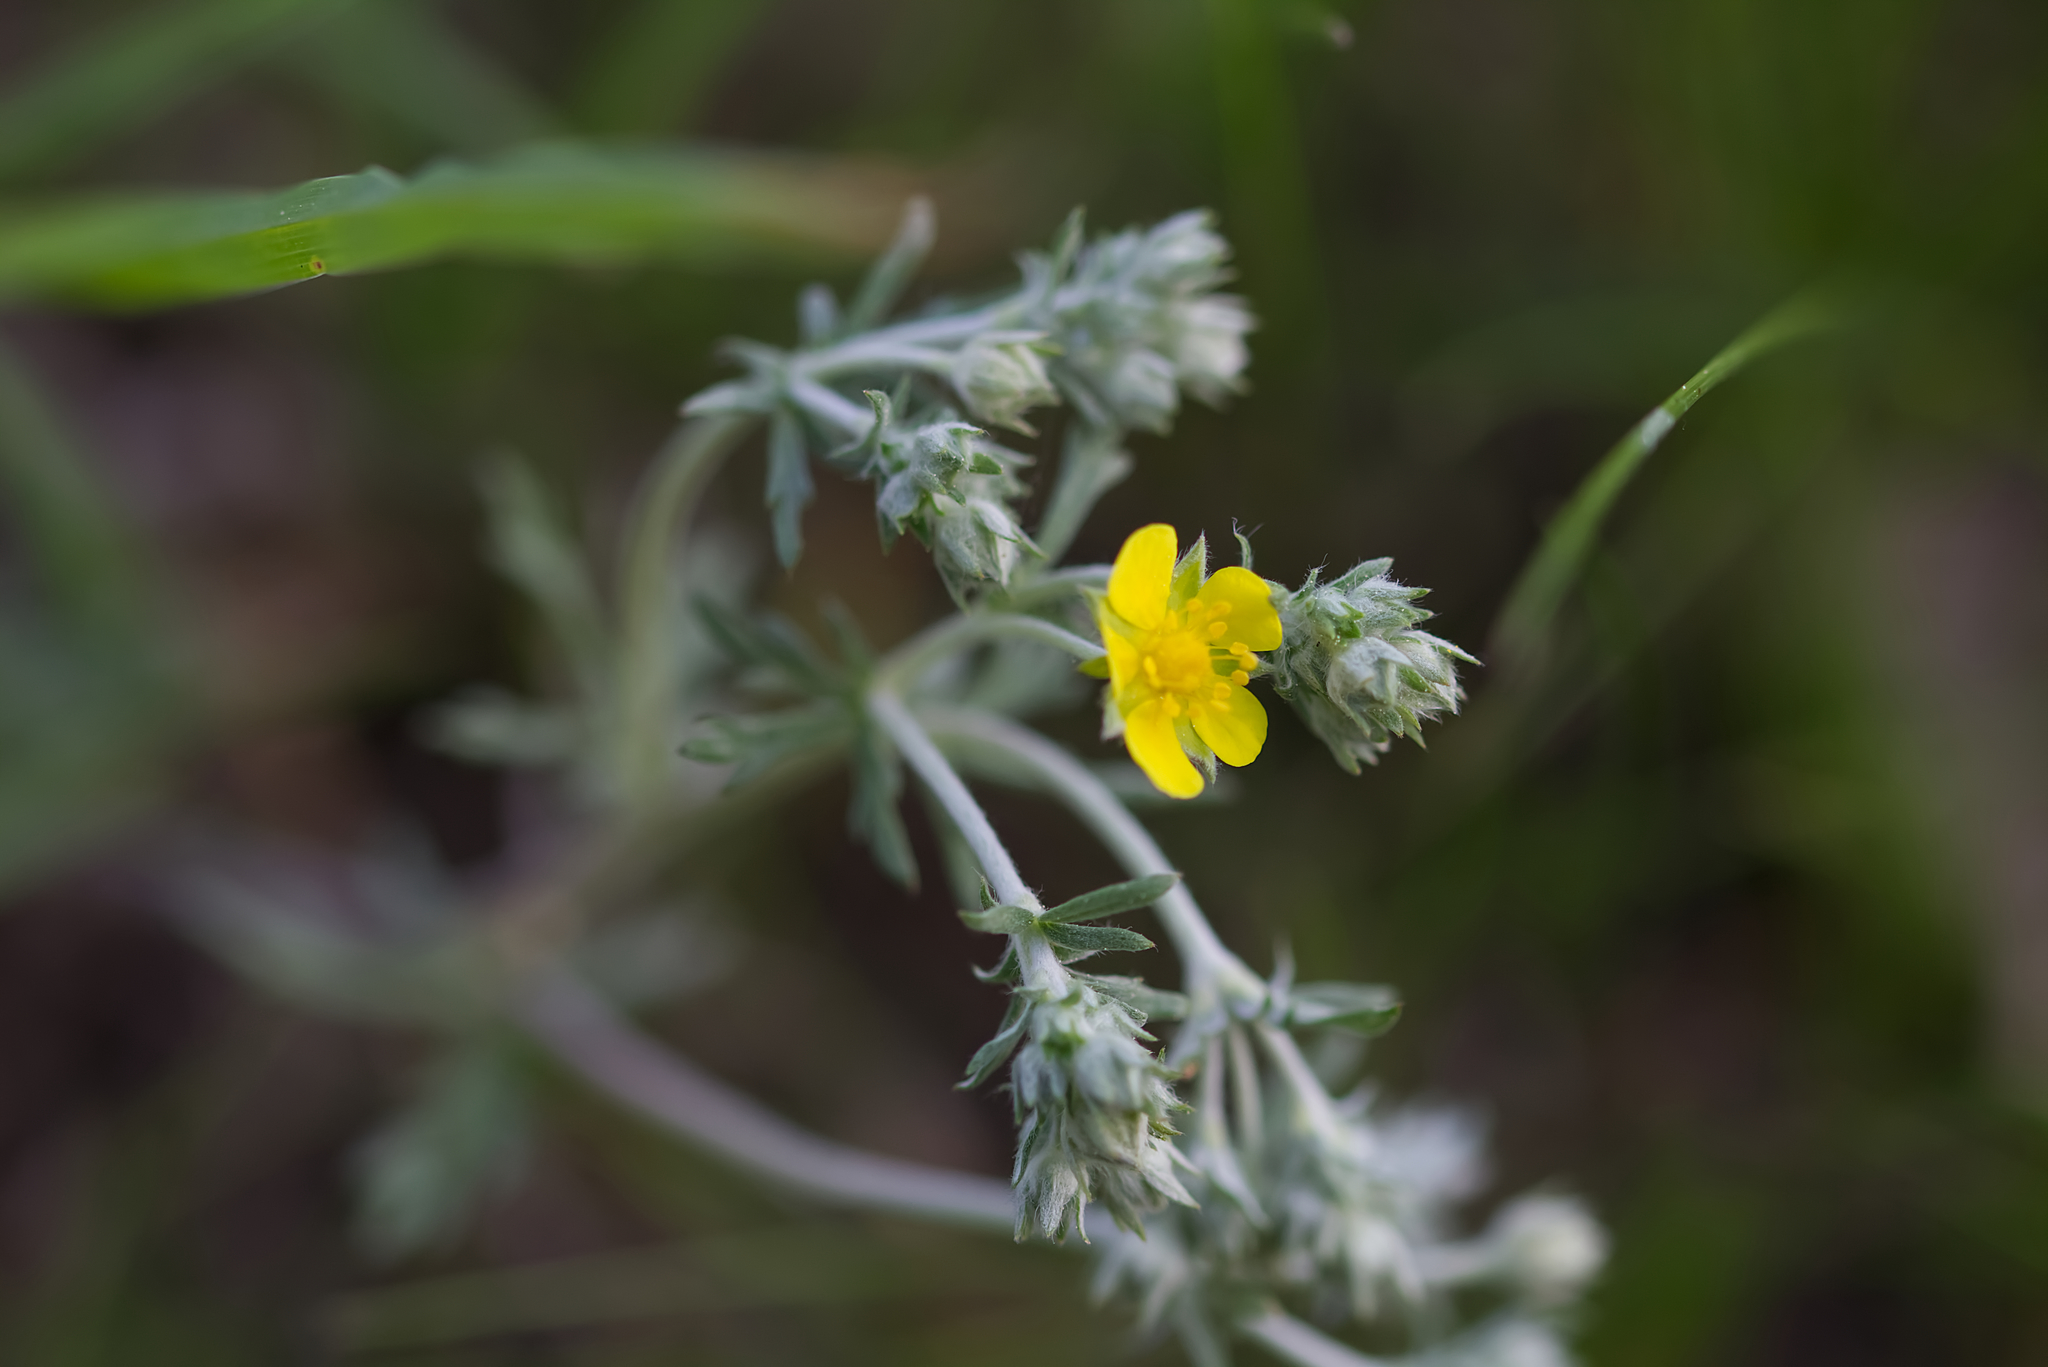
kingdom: Plantae
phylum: Tracheophyta
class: Magnoliopsida
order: Rosales
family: Rosaceae
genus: Potentilla
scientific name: Potentilla argentea
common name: Hoary cinquefoil
